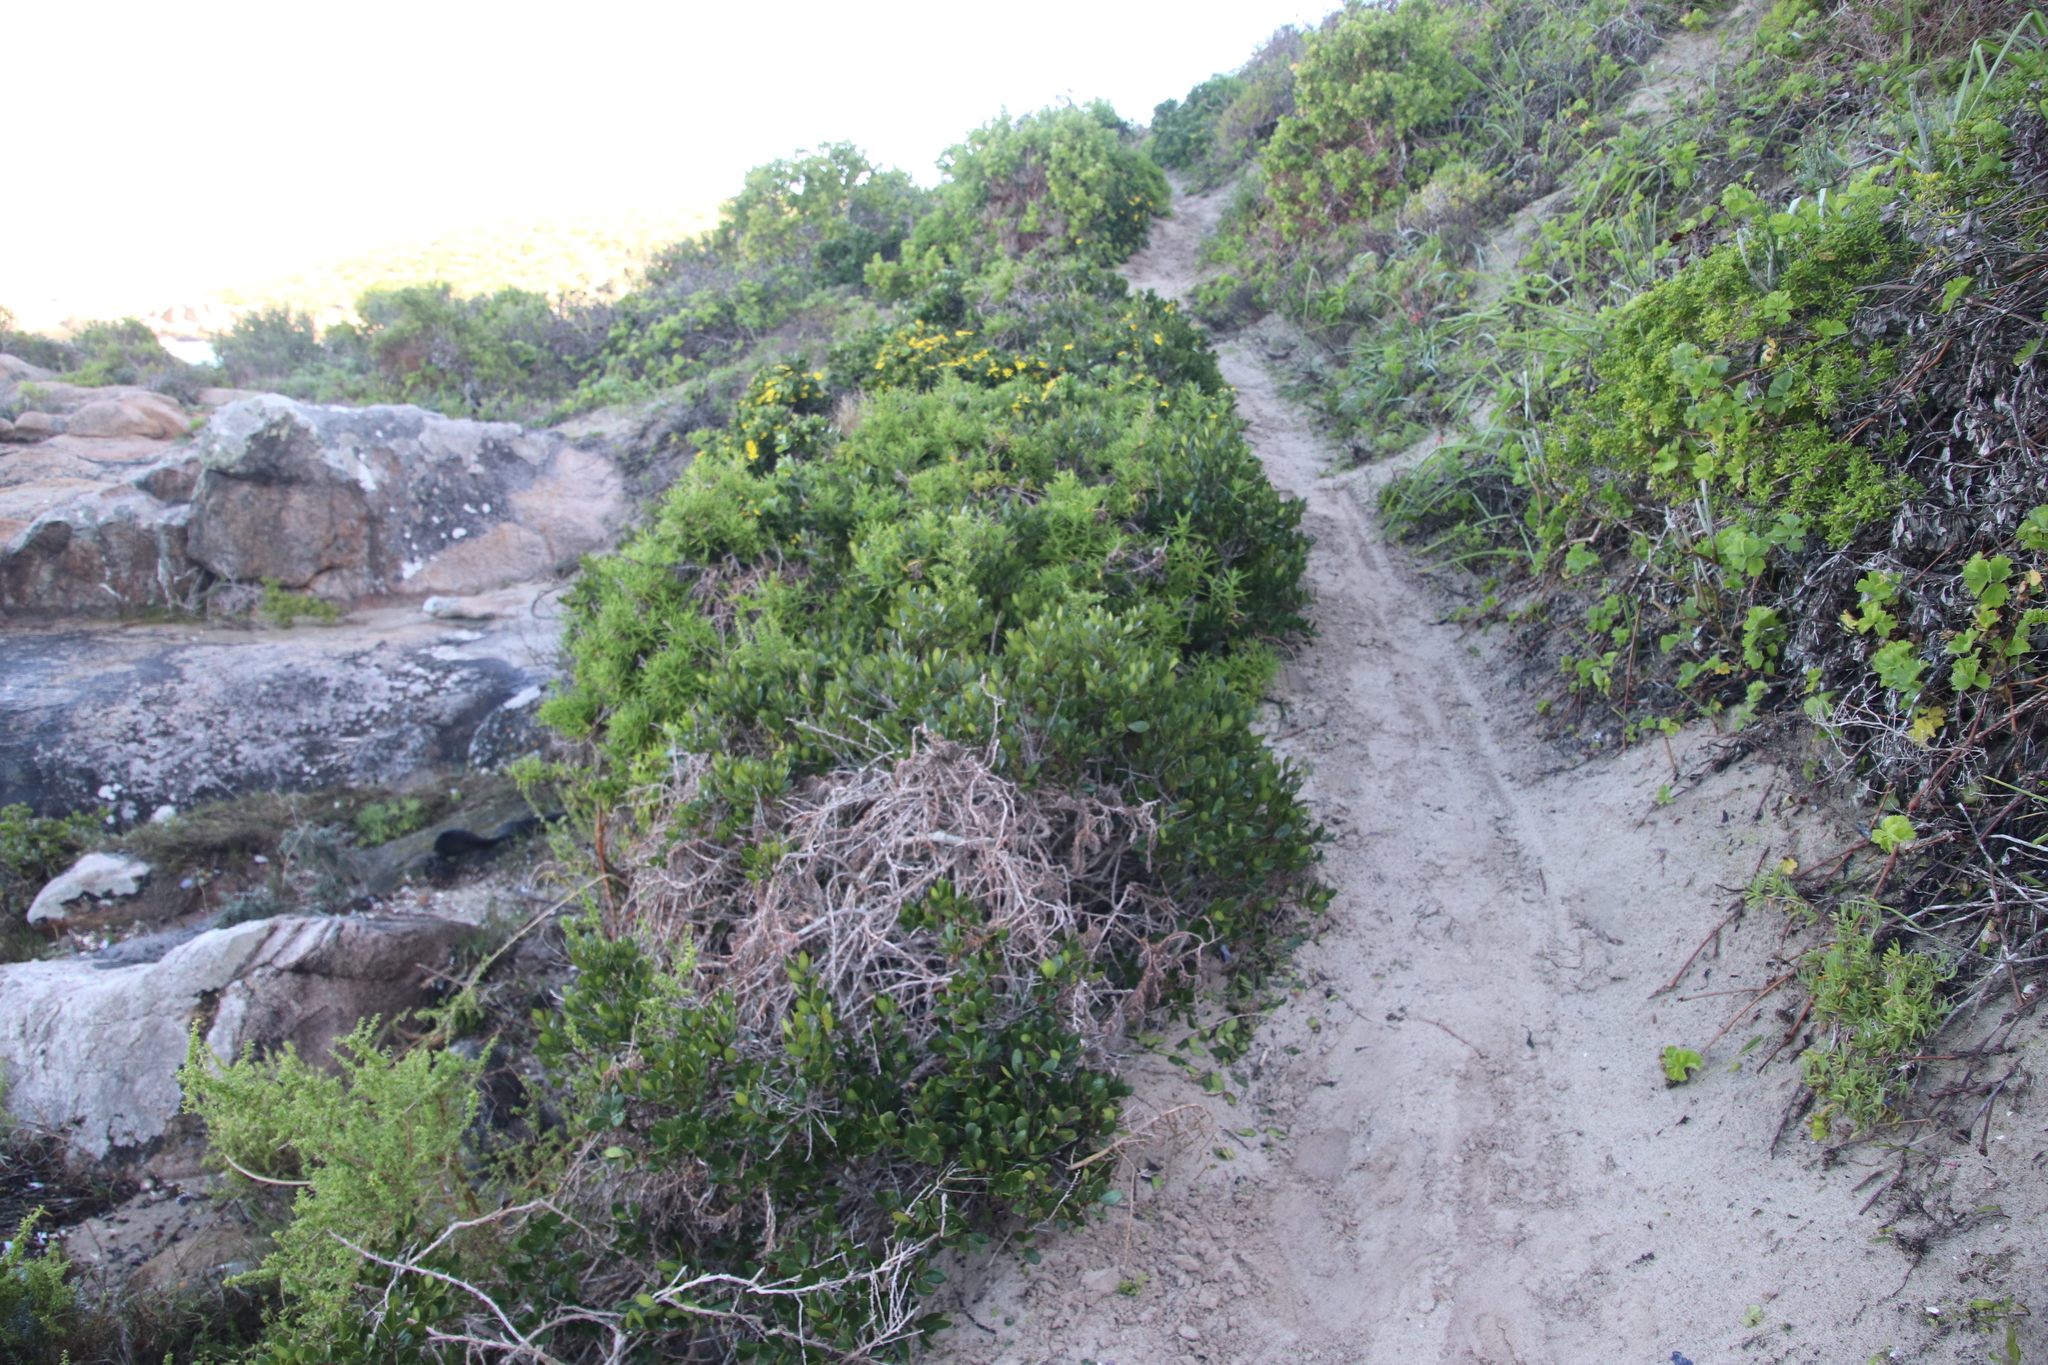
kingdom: Plantae
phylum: Tracheophyta
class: Magnoliopsida
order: Ericales
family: Ebenaceae
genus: Euclea
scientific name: Euclea racemosa
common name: Dune guarri
